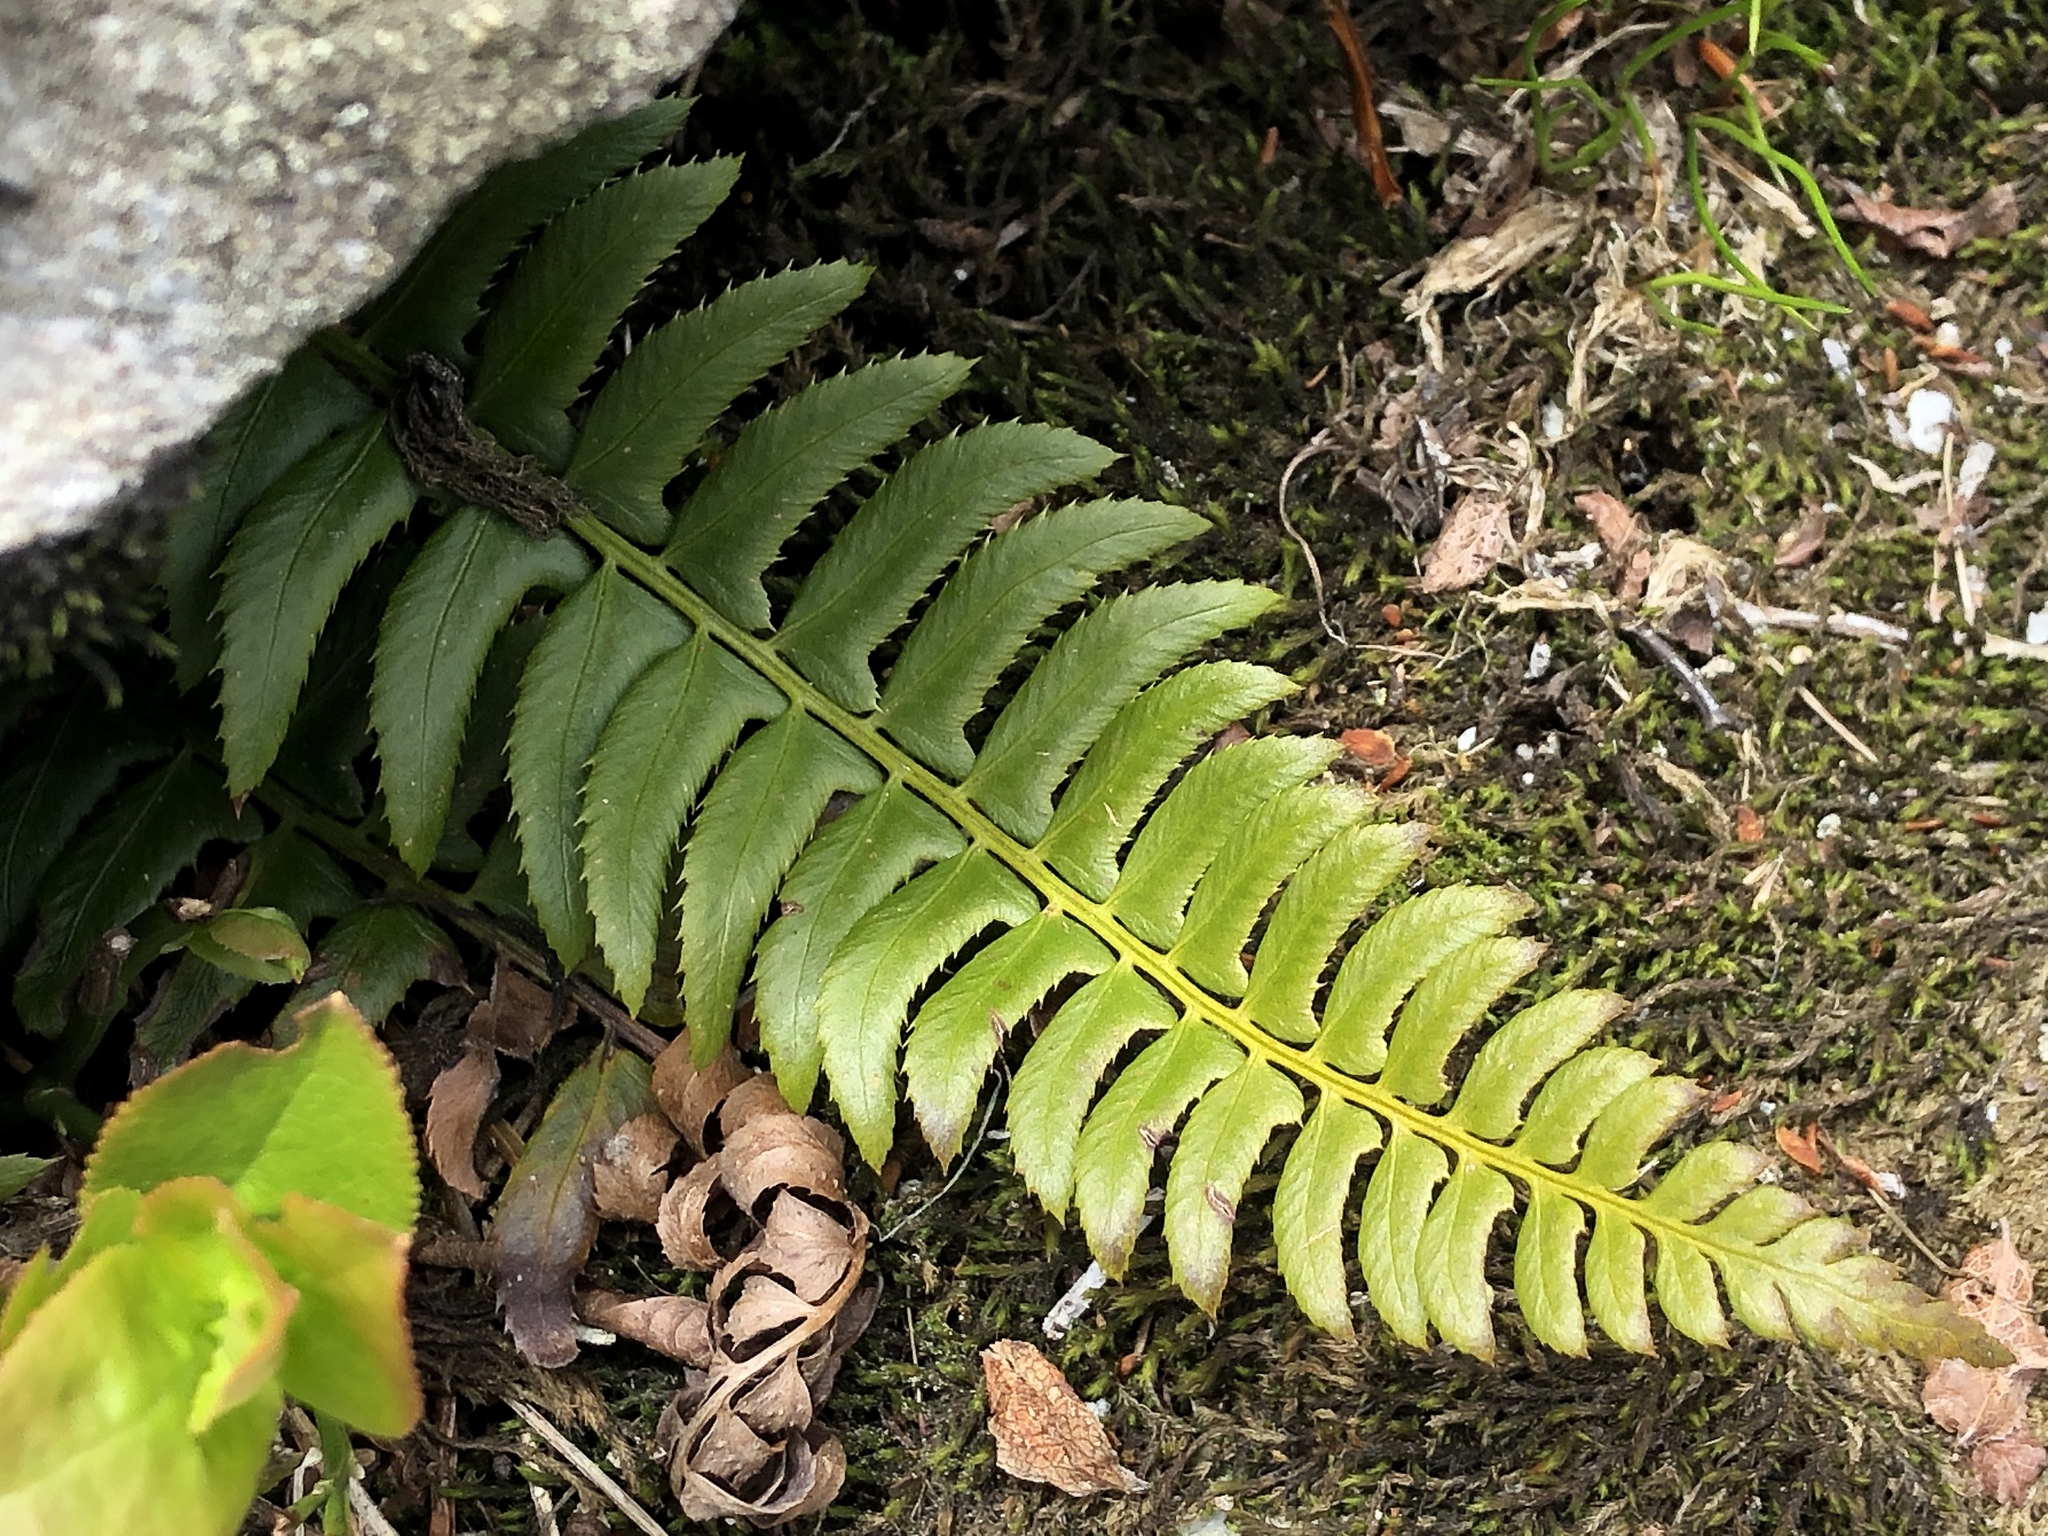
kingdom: Plantae
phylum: Tracheophyta
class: Polypodiopsida
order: Polypodiales
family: Dryopteridaceae
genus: Polystichum
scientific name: Polystichum lonchitis
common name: Holly fern
